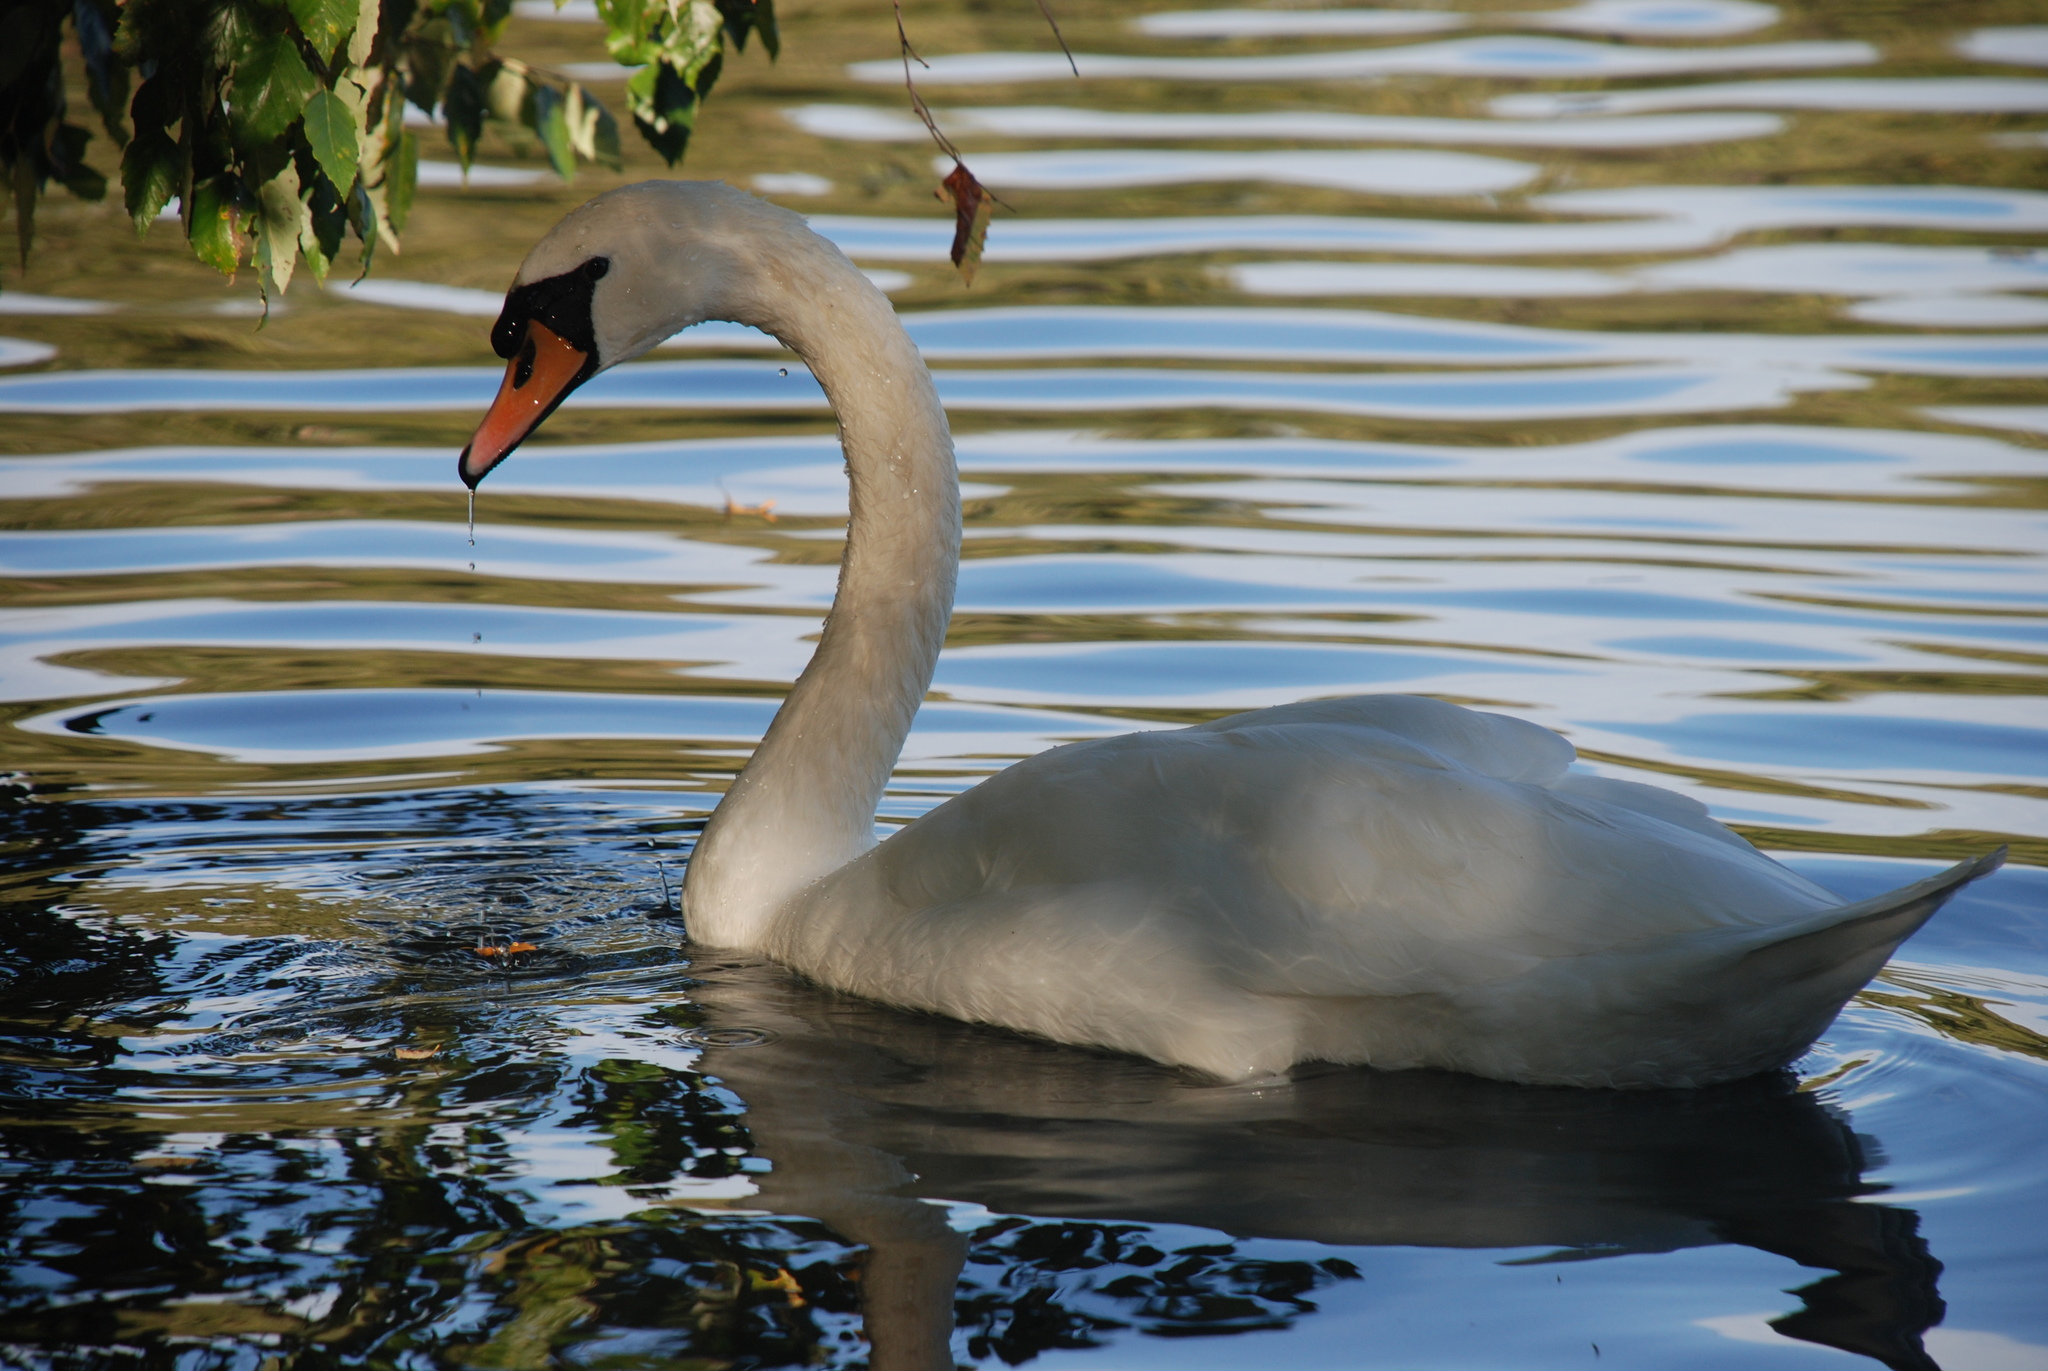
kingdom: Animalia
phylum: Chordata
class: Aves
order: Anseriformes
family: Anatidae
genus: Cygnus
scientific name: Cygnus olor
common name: Mute swan
